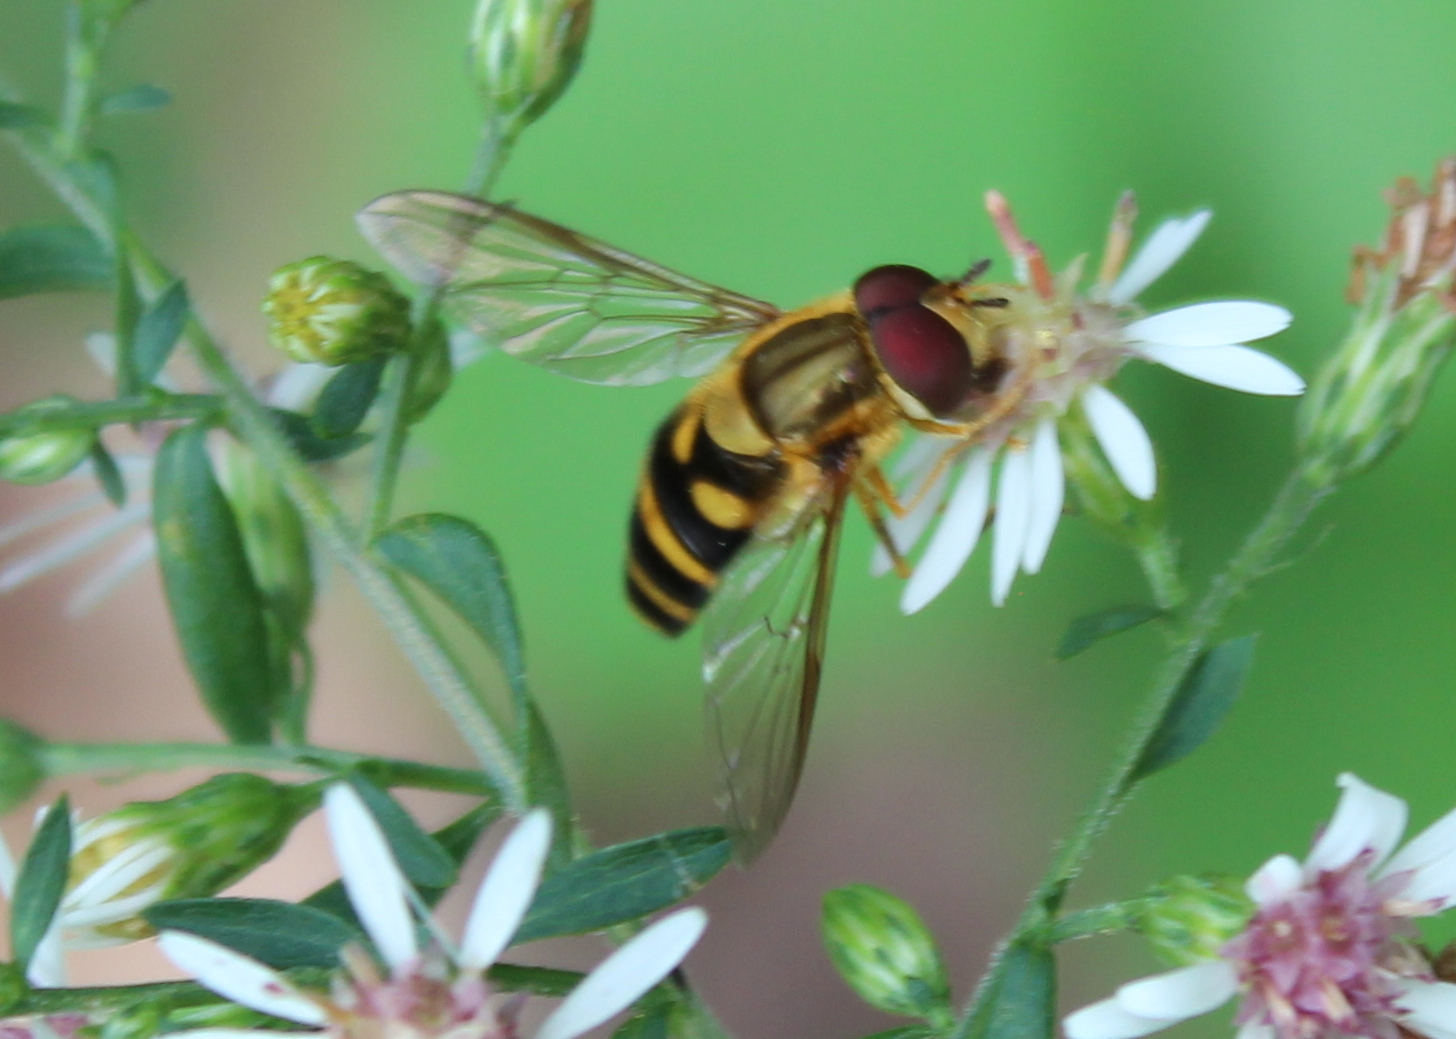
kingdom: Animalia
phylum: Arthropoda
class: Insecta
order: Diptera
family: Syrphidae
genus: Syrphus
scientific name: Syrphus knabi
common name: Eastern flower fly
